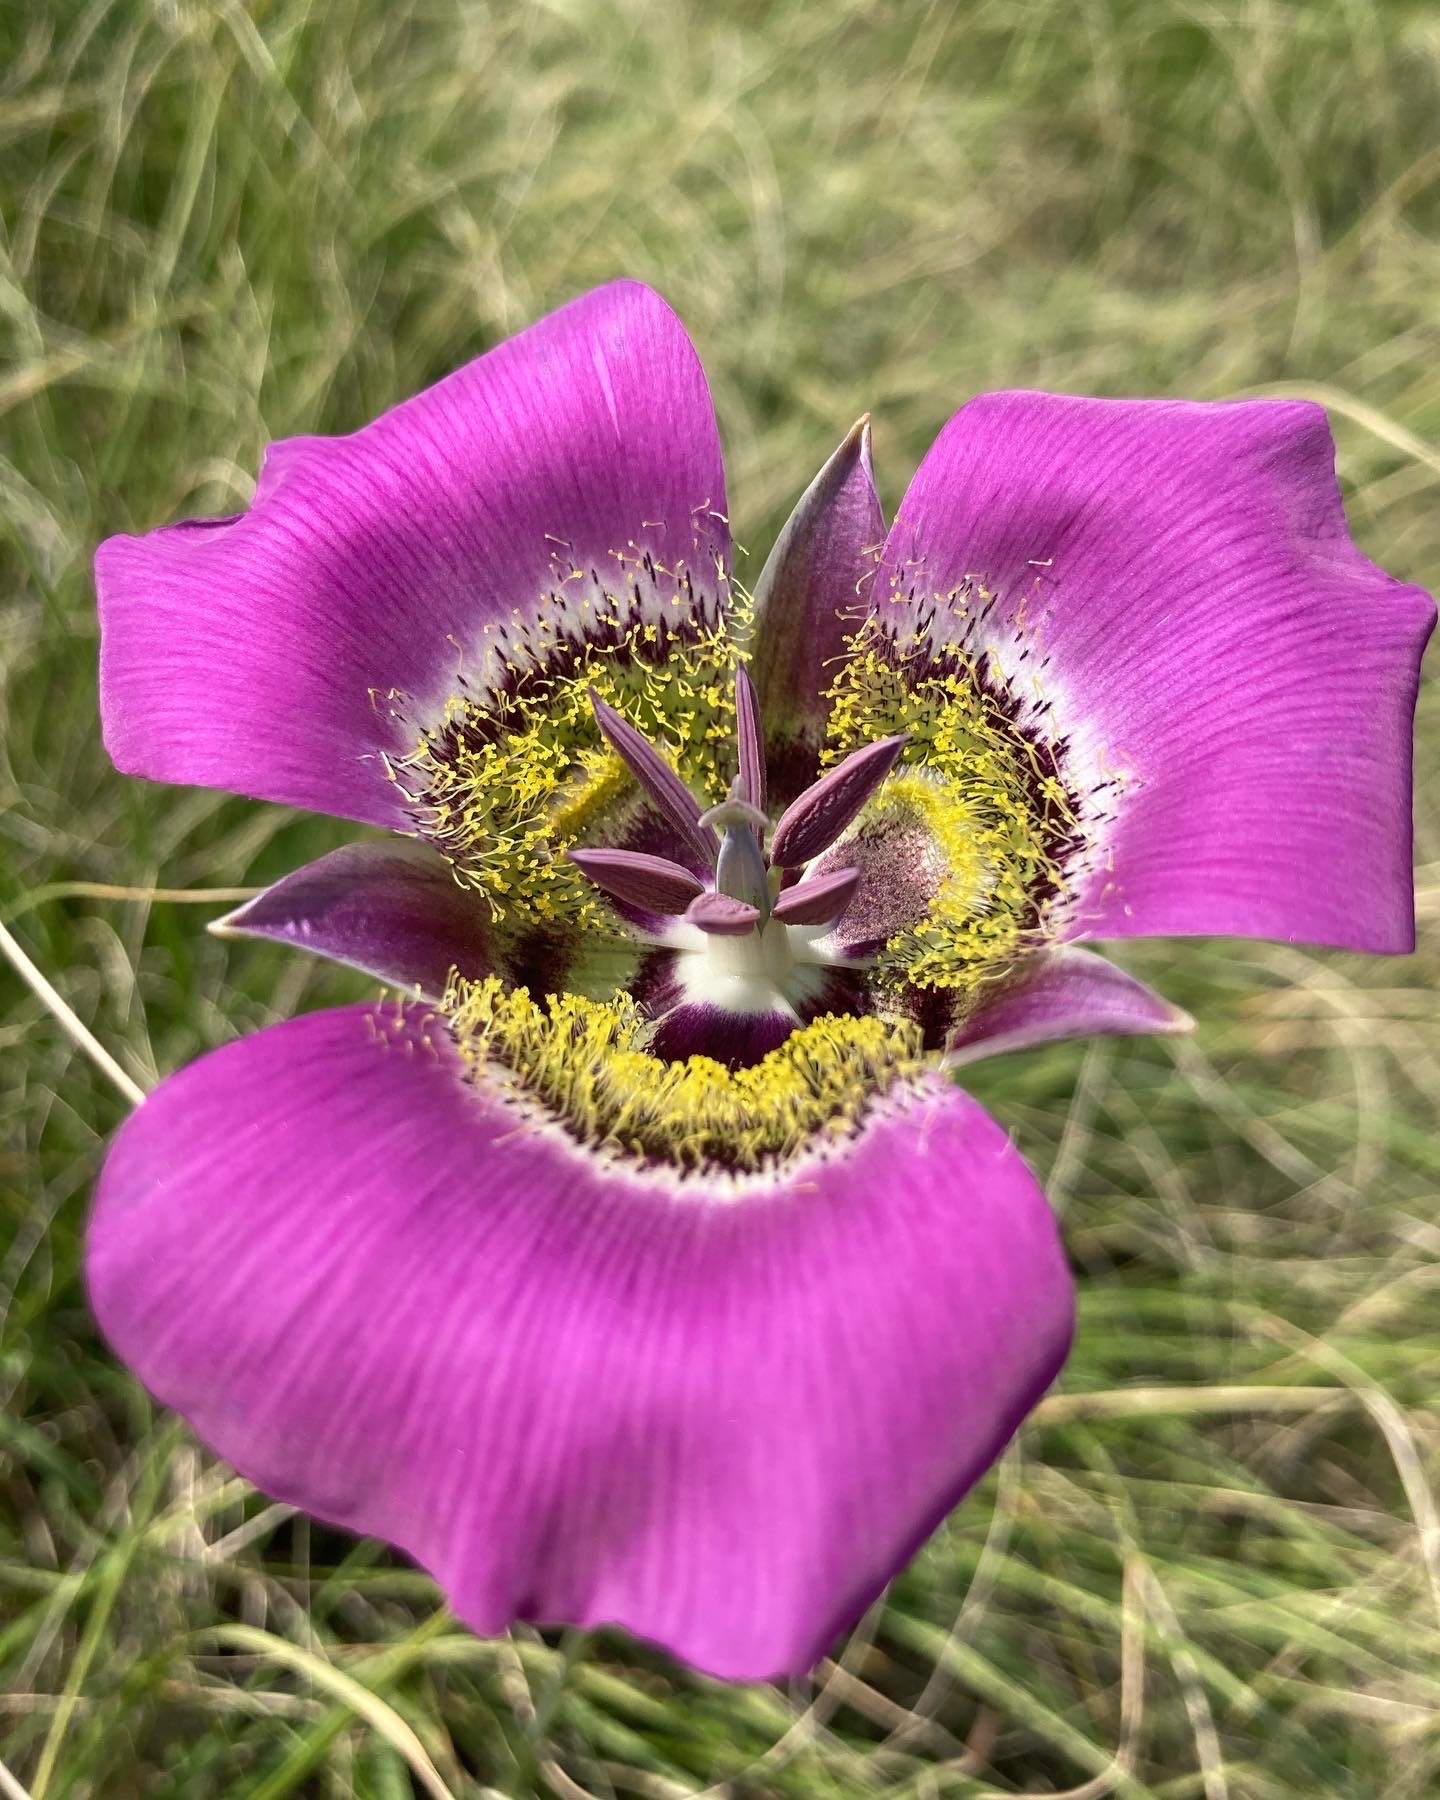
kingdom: Plantae
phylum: Tracheophyta
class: Liliopsida
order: Liliales
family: Liliaceae
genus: Calochortus
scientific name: Calochortus gunnisonii
